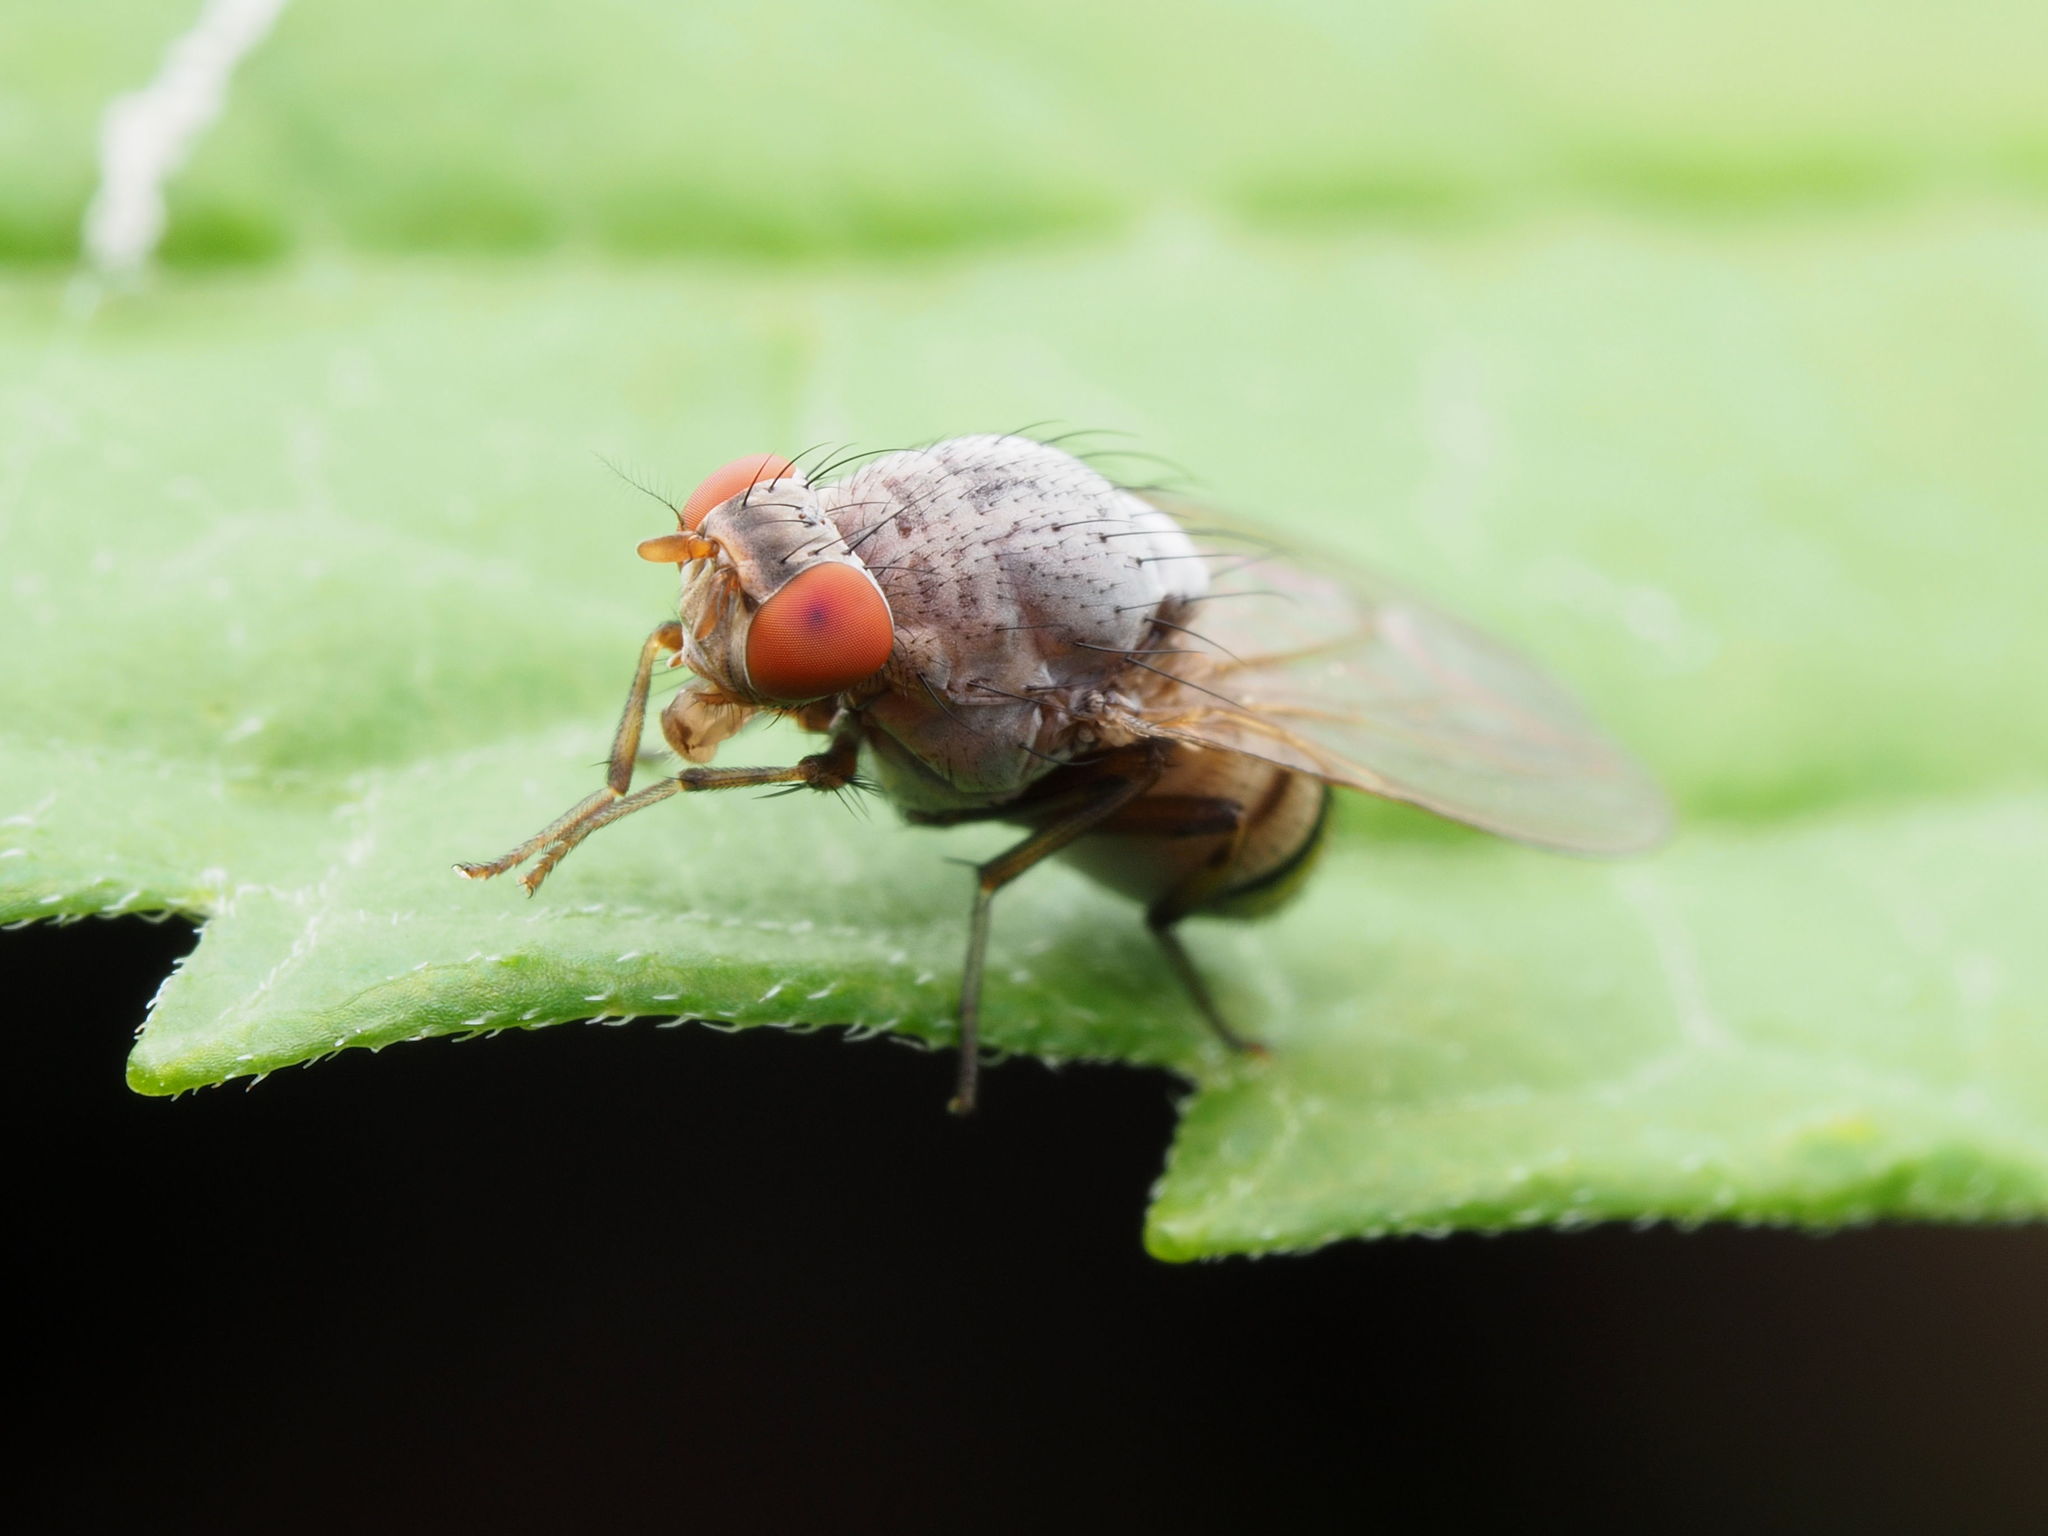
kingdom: Animalia
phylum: Arthropoda
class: Insecta
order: Diptera
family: Lauxaniidae
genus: Minettia
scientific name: Minettia magna
